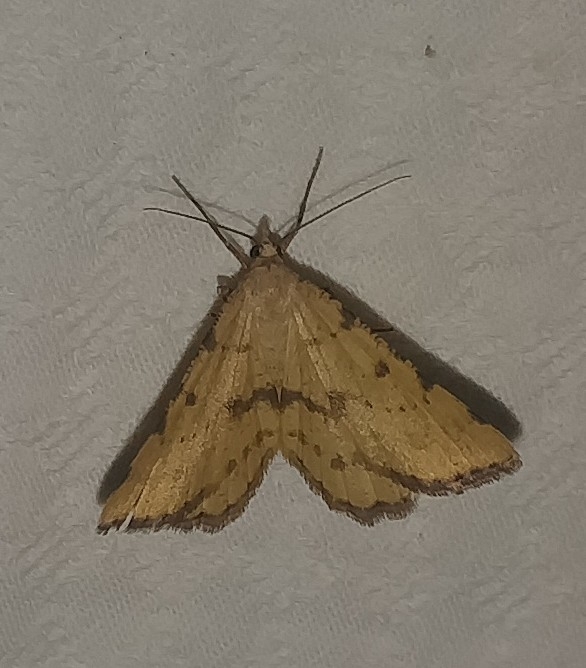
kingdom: Animalia
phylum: Arthropoda
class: Insecta
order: Lepidoptera
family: Geometridae
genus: Macaria
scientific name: Macaria amboflava
